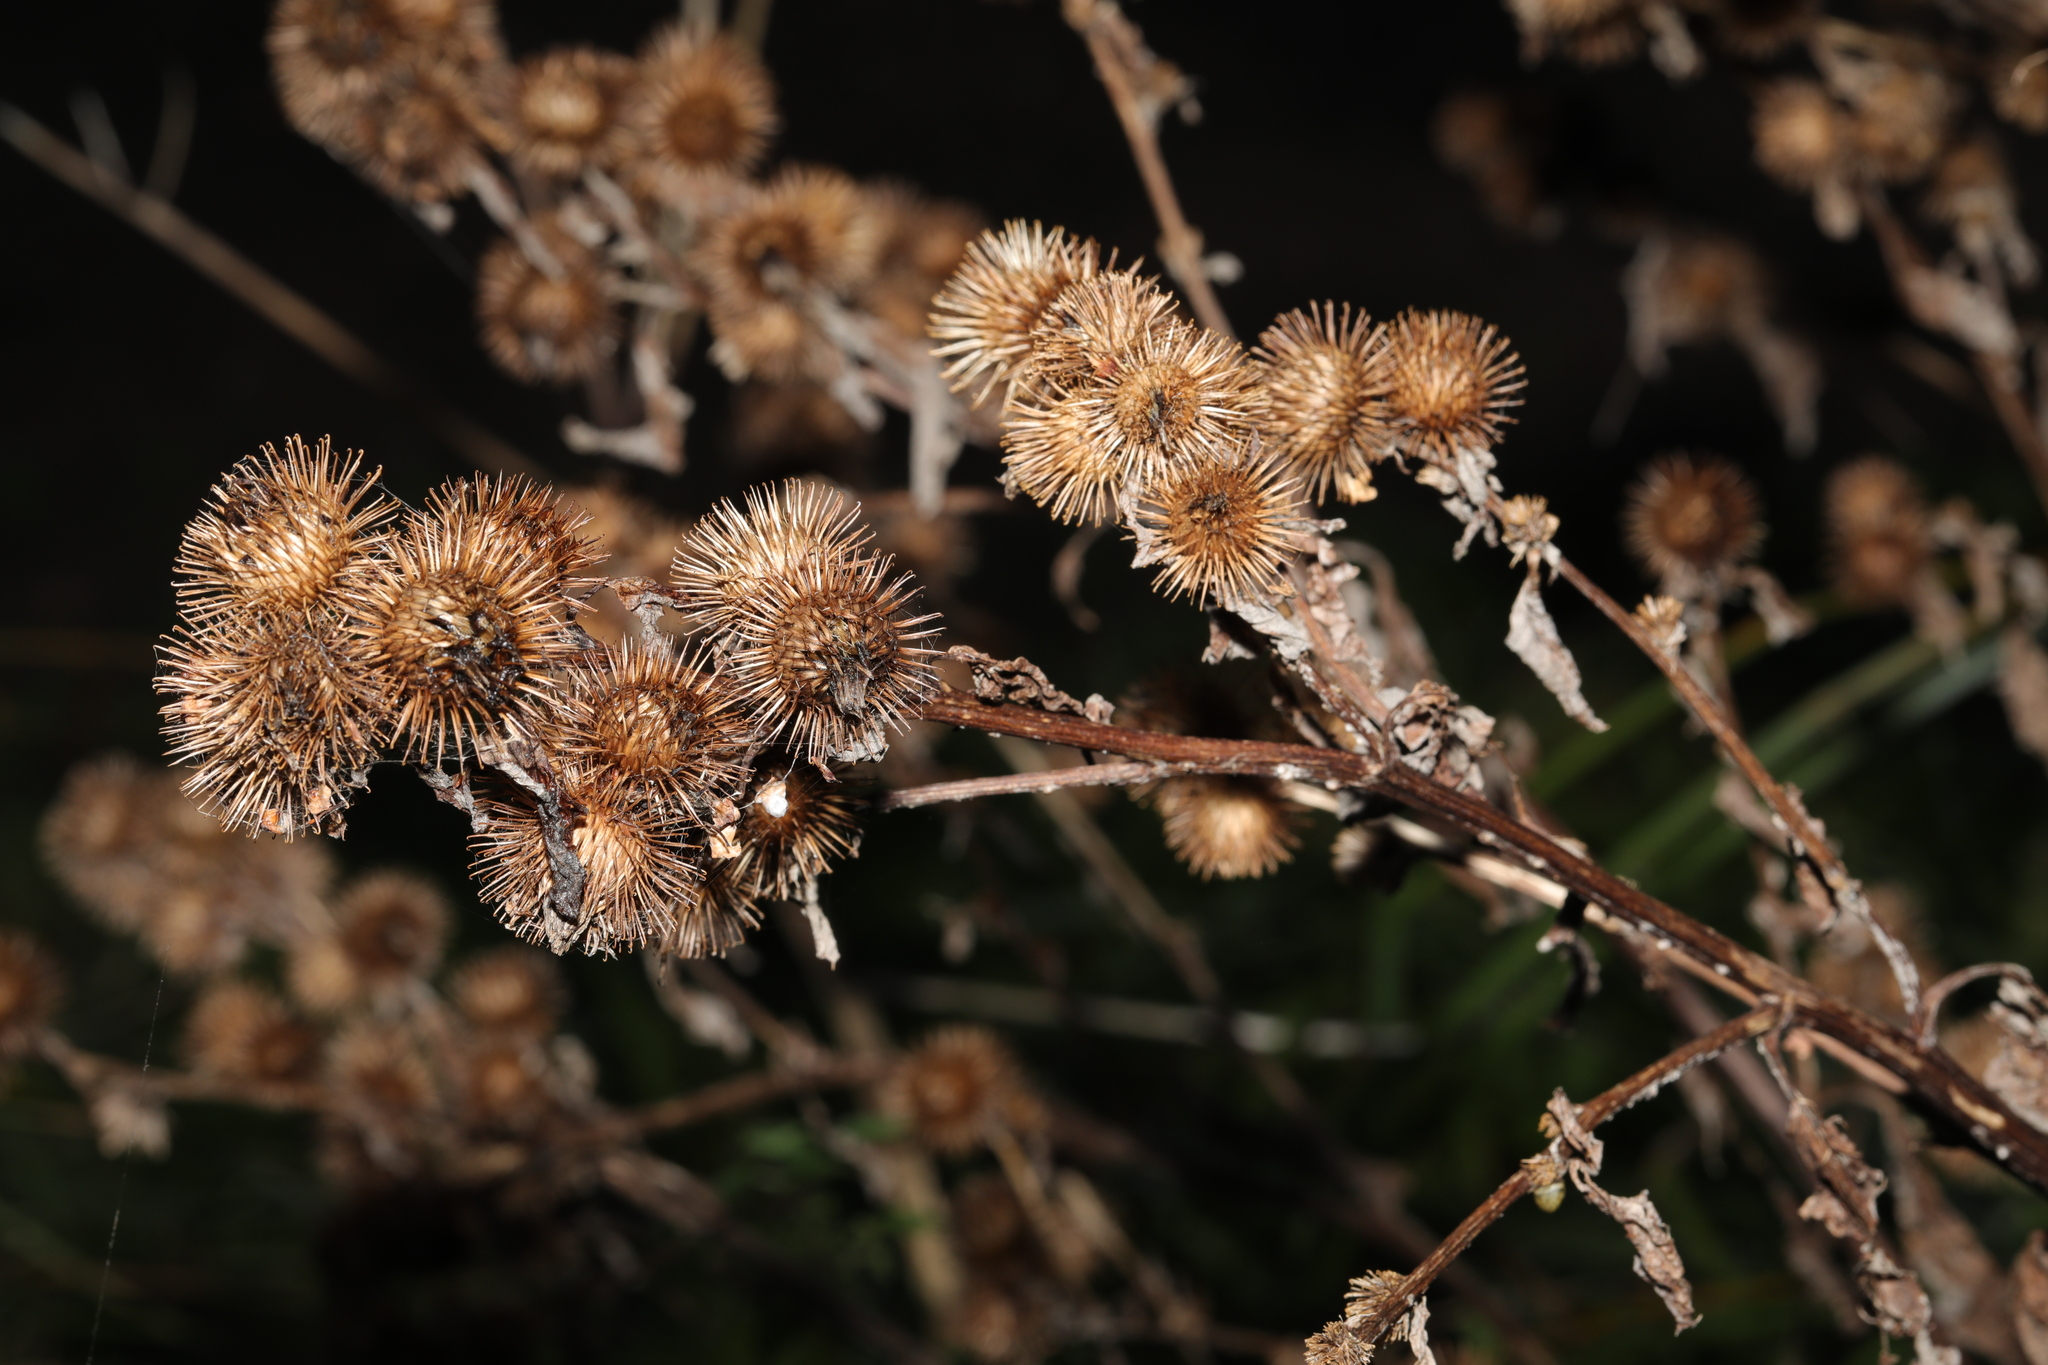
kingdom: Plantae
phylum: Tracheophyta
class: Magnoliopsida
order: Asterales
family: Asteraceae
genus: Arctium
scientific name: Arctium minus
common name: Lesser burdock
